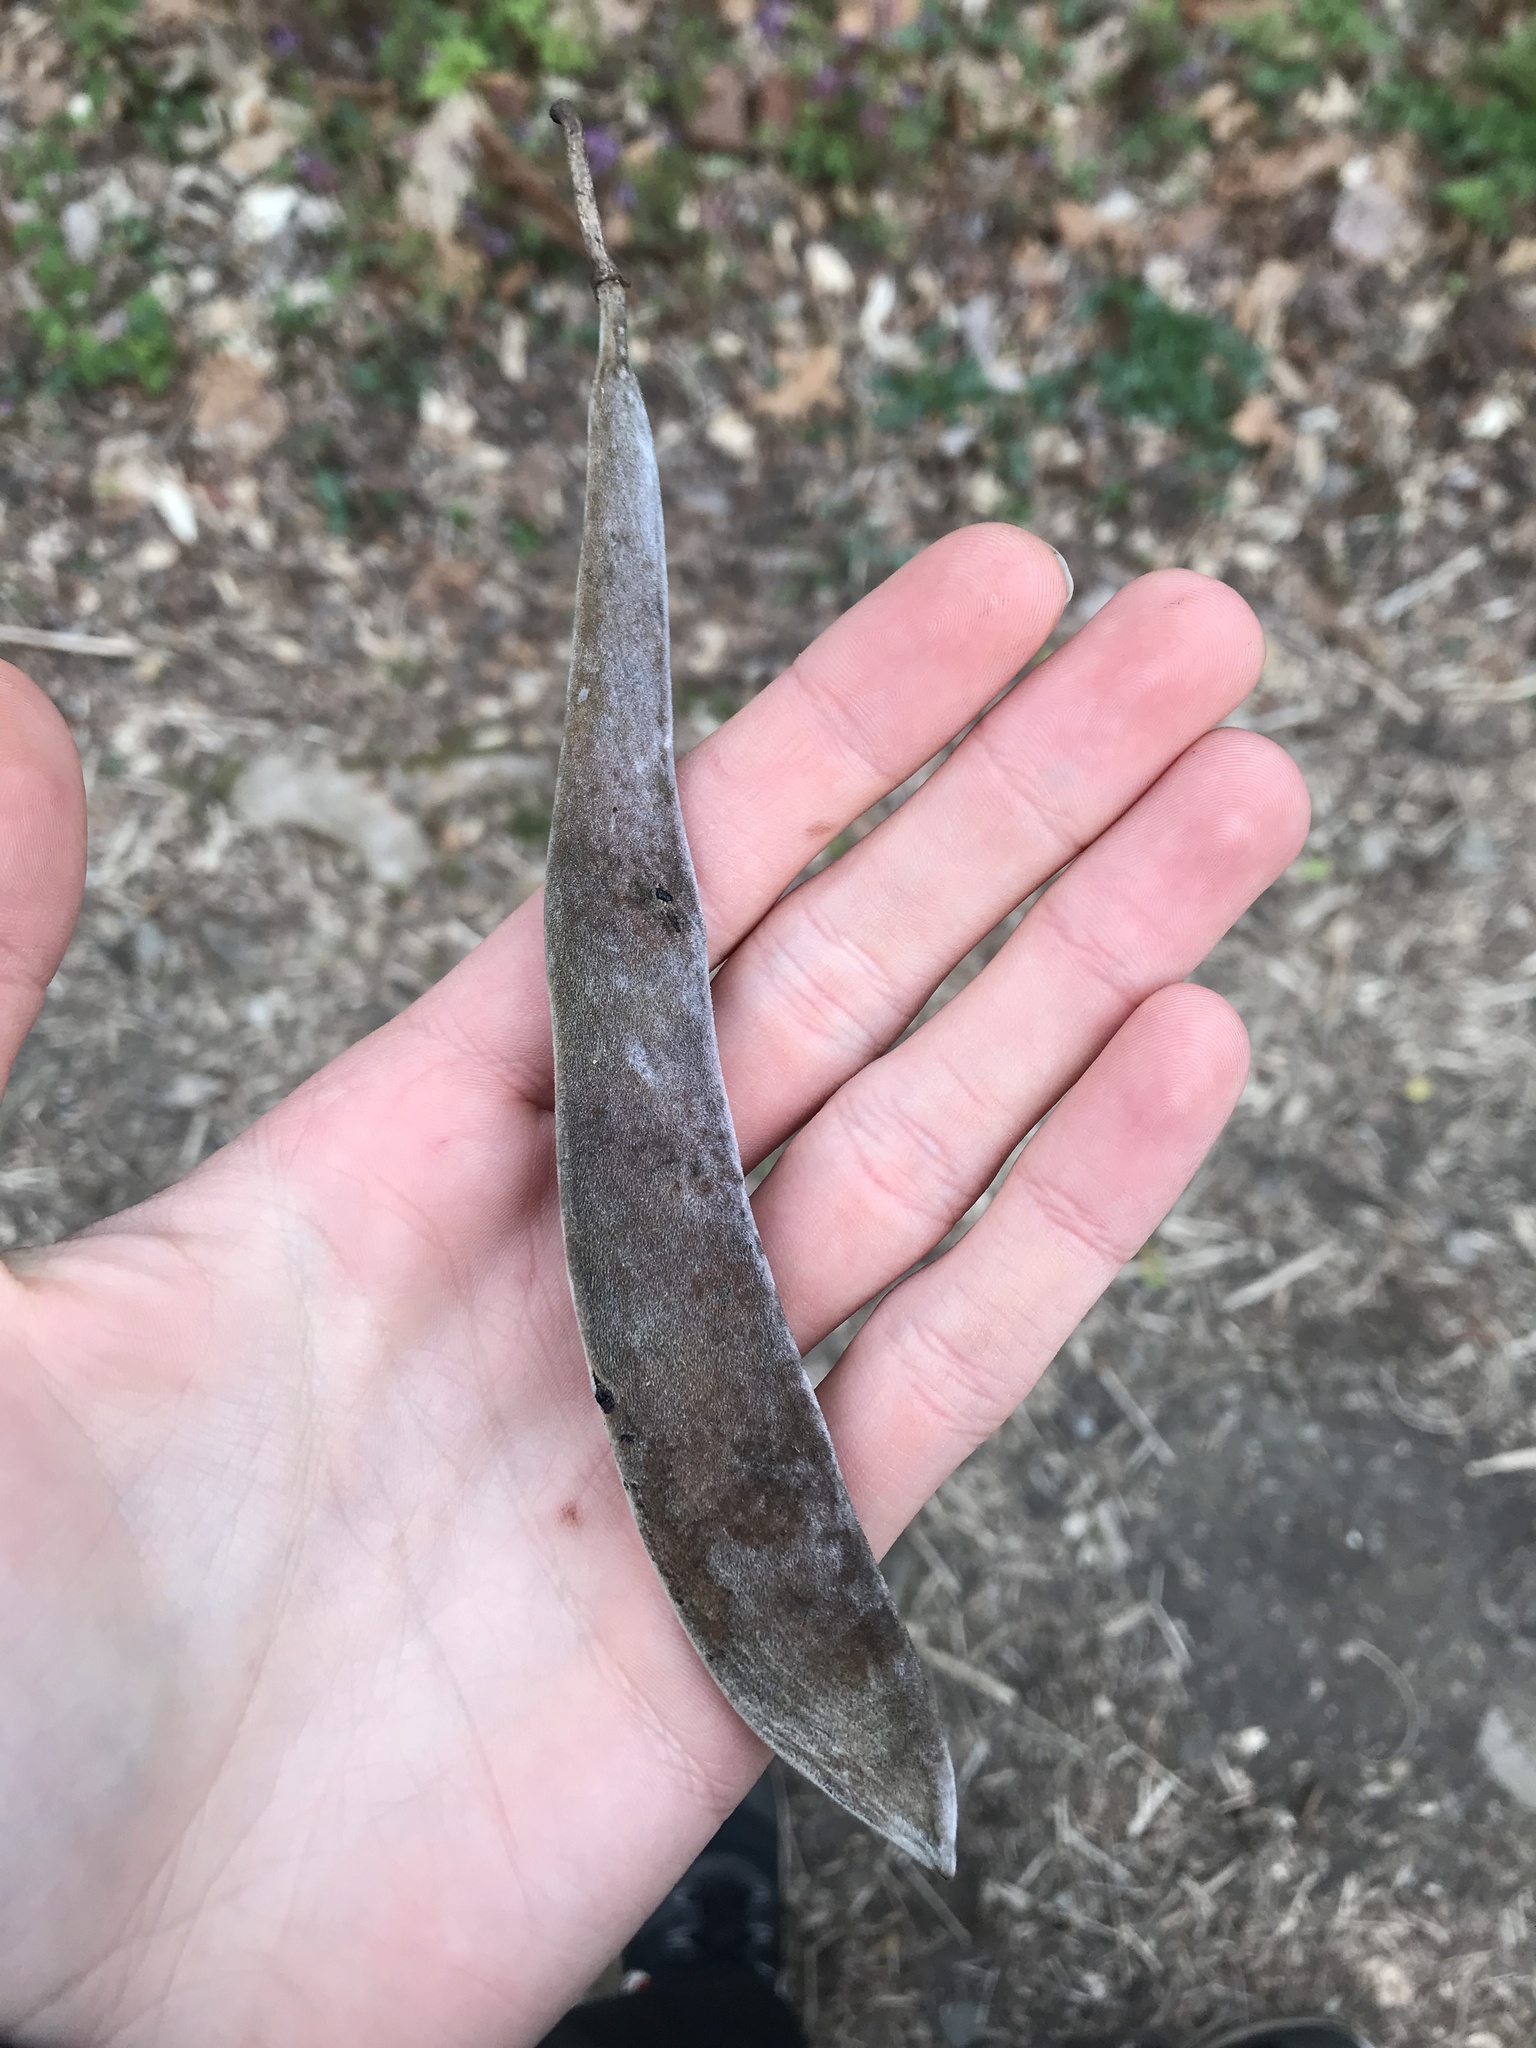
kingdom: Plantae
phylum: Tracheophyta
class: Magnoliopsida
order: Fabales
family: Fabaceae
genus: Wisteria
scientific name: Wisteria
